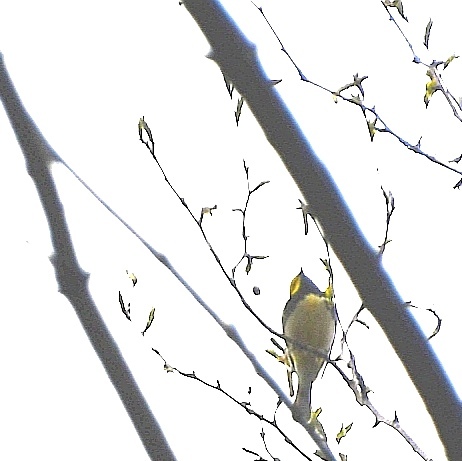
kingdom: Animalia
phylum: Chordata
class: Aves
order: Passeriformes
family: Parulidae
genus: Setophaga
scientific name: Setophaga virens
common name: Black-throated green warbler
